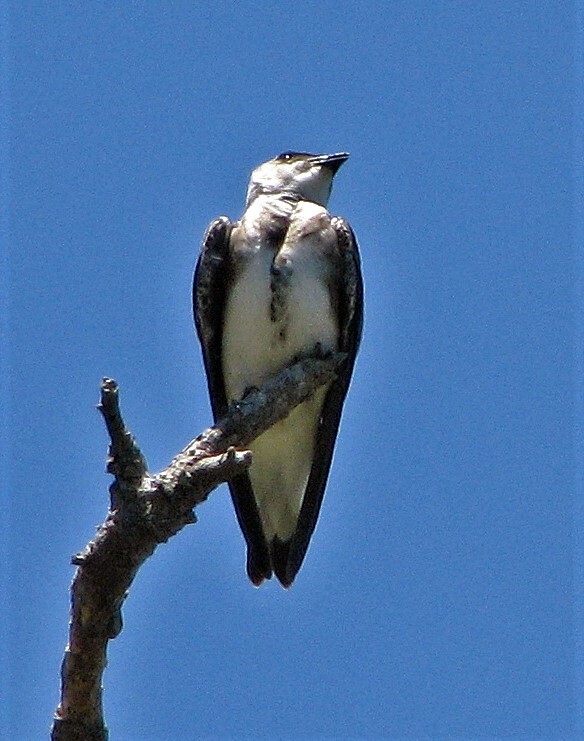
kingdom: Animalia
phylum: Chordata
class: Aves
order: Passeriformes
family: Hirundinidae
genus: Progne
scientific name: Progne tapera
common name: Brown-chested martin
